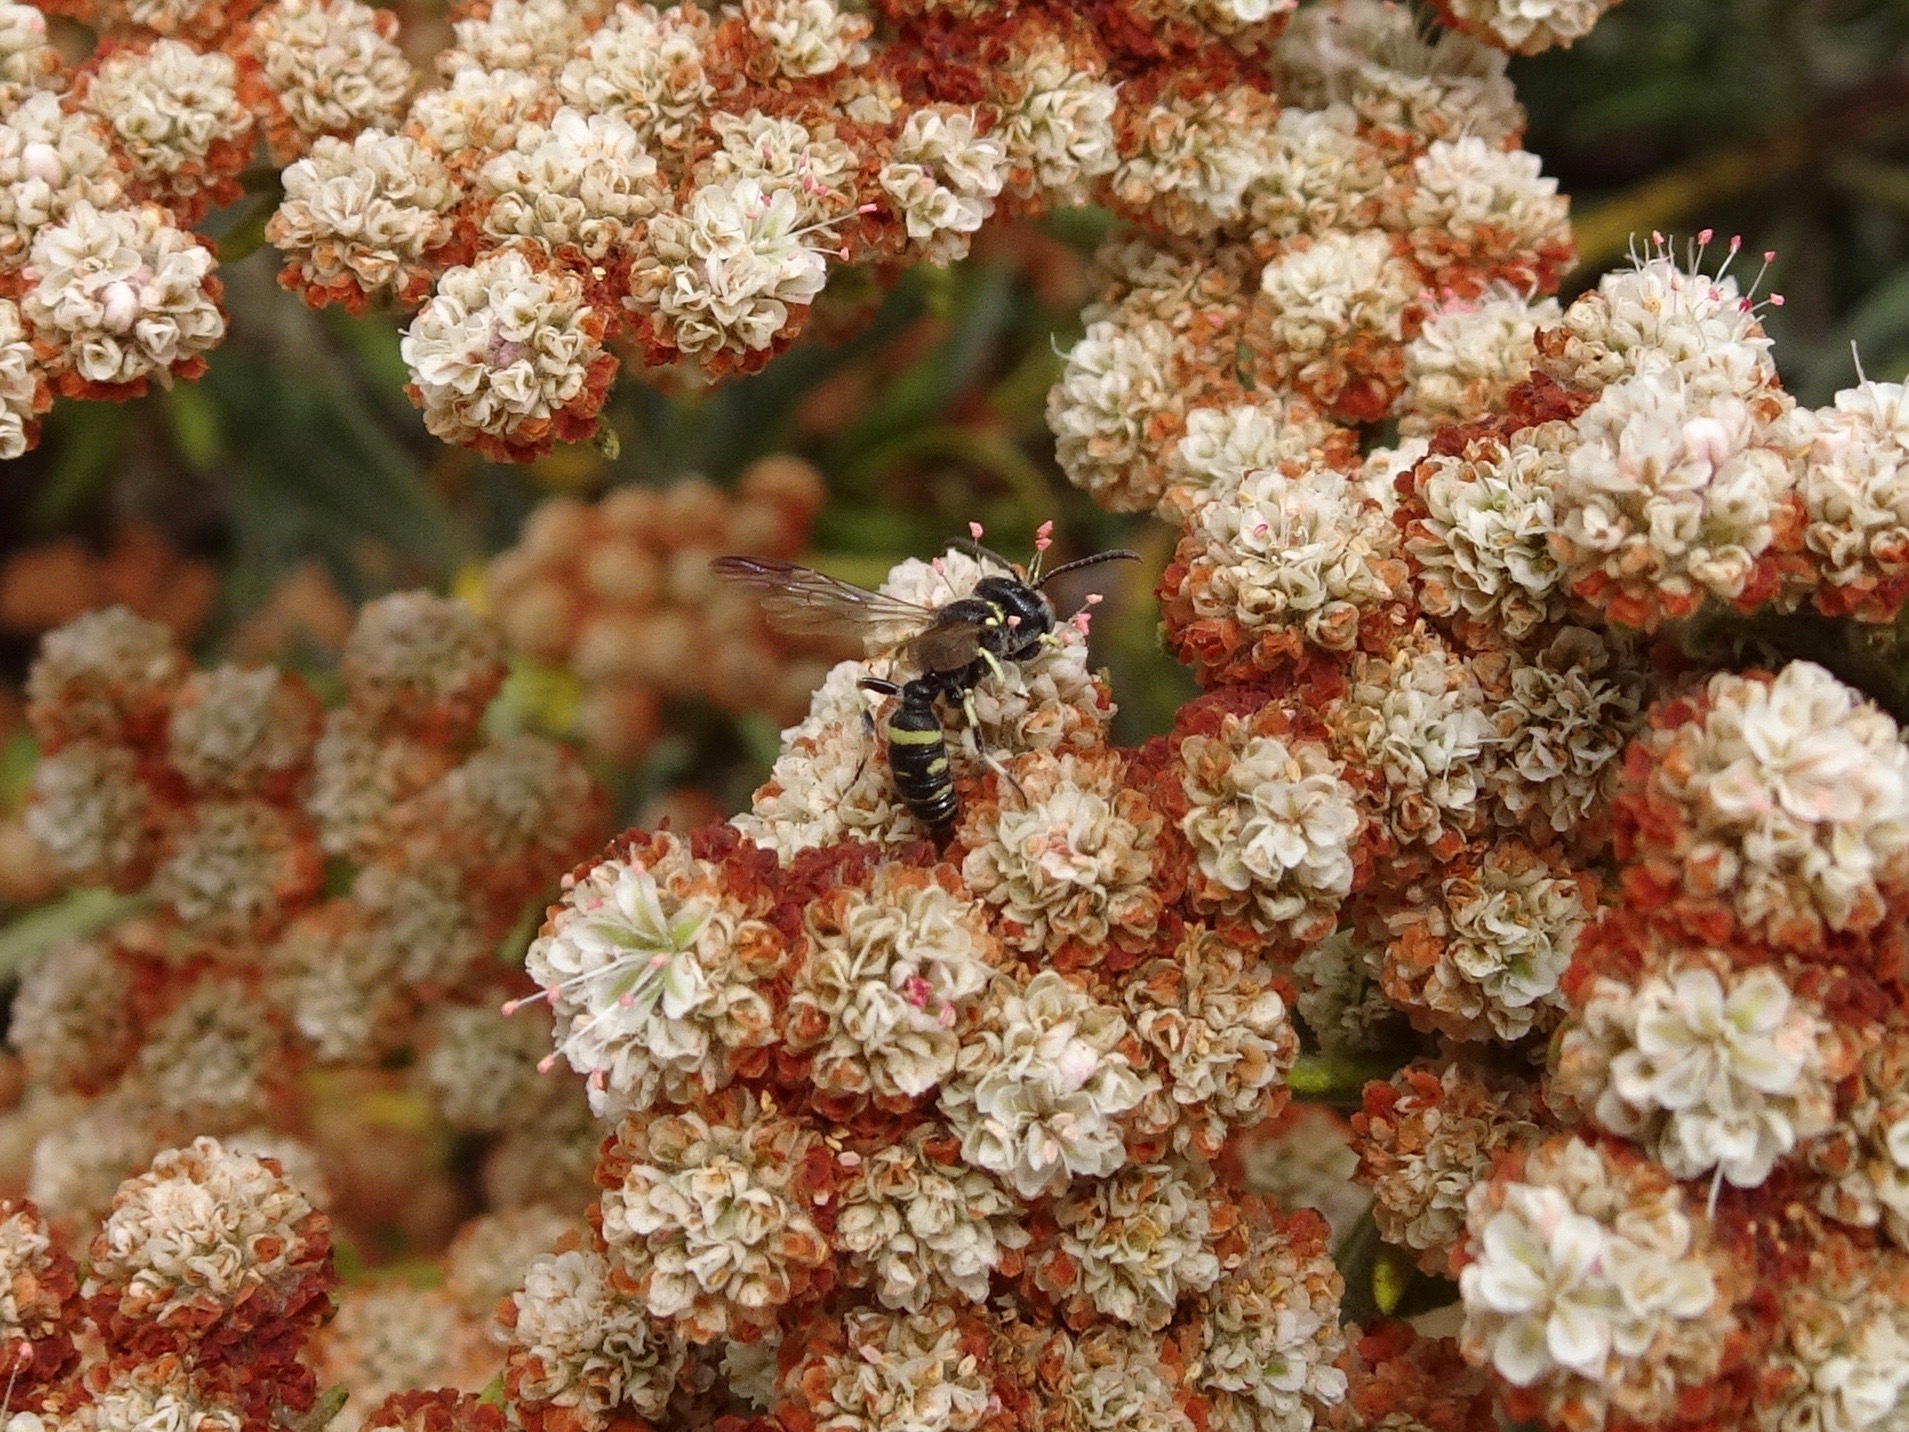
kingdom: Animalia
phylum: Arthropoda
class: Insecta
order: Hymenoptera
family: Crabronidae
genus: Cerceris
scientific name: Cerceris convergens
